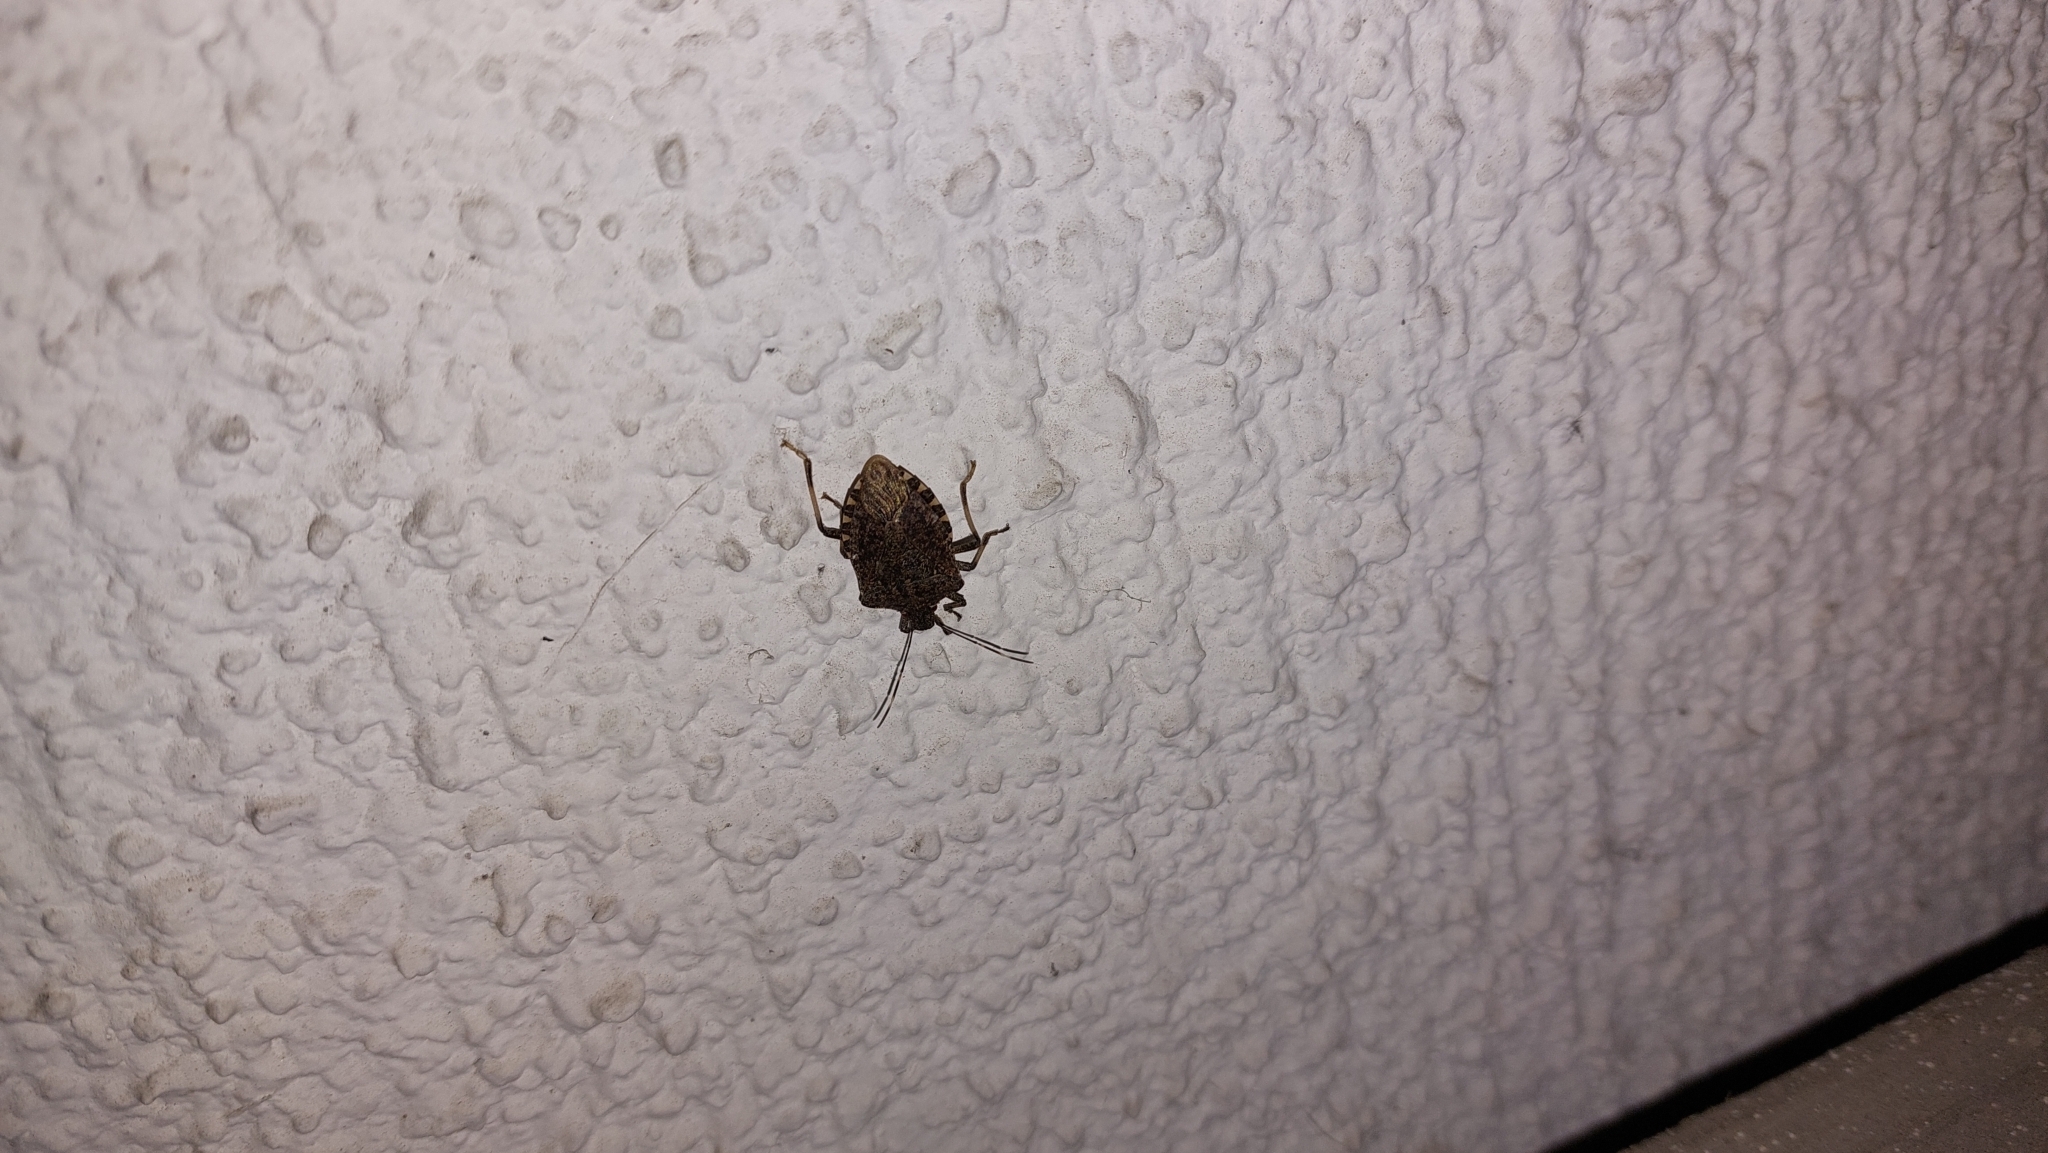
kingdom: Animalia
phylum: Arthropoda
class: Insecta
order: Hemiptera
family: Pentatomidae
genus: Halyomorpha
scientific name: Halyomorpha halys
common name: Brown marmorated stink bug
